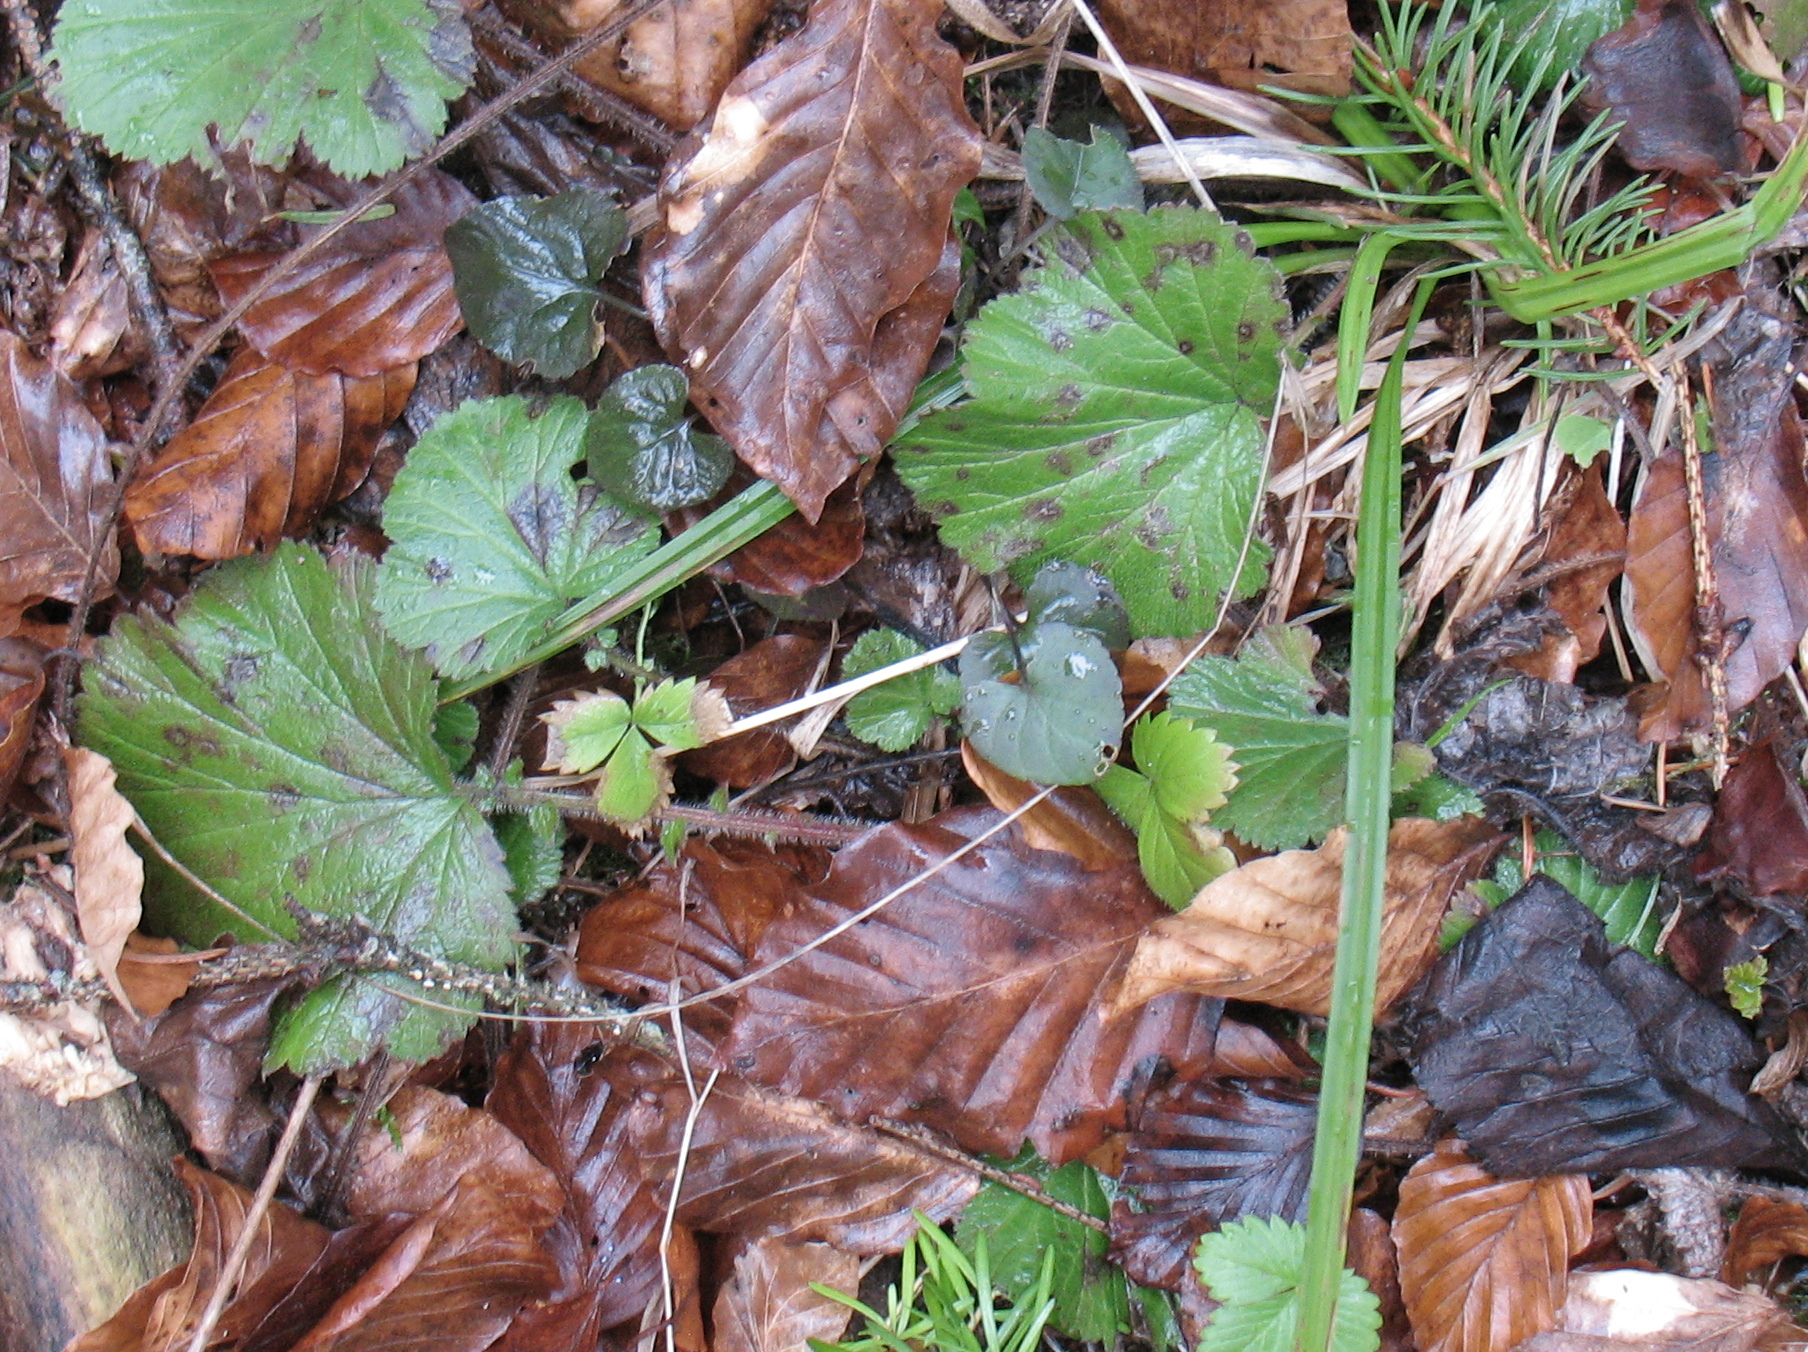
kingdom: Plantae
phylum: Tracheophyta
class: Magnoliopsida
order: Rosales
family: Rosaceae
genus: Geum
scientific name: Geum rivale
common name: Water avens
